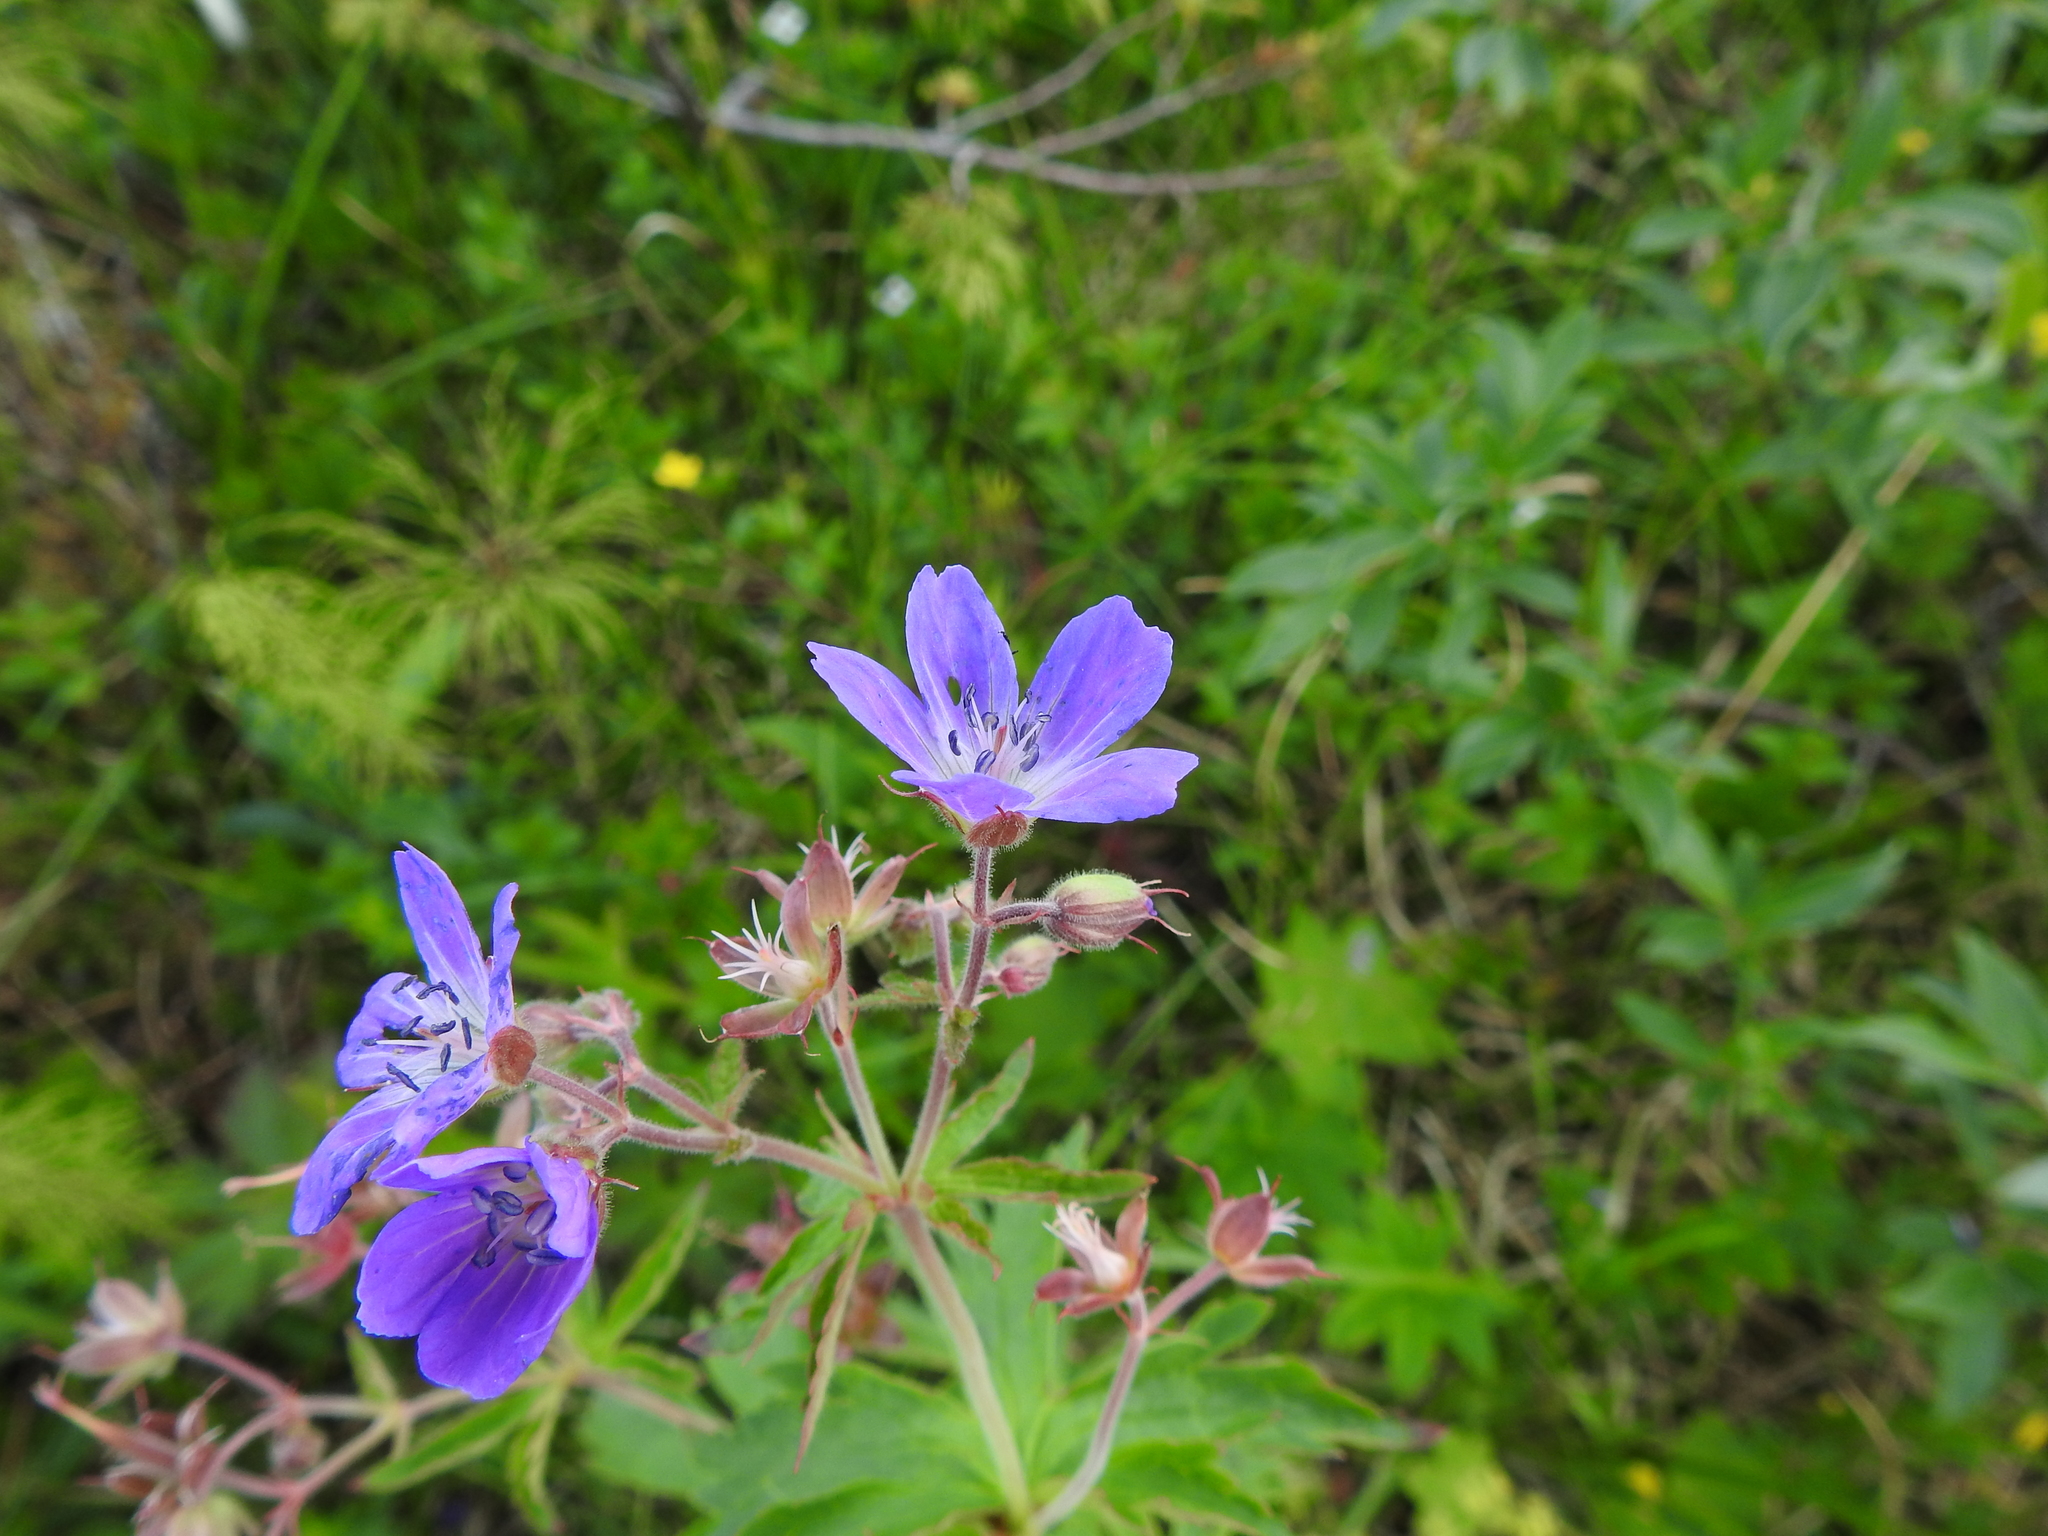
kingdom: Plantae
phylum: Tracheophyta
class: Magnoliopsida
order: Geraniales
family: Geraniaceae
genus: Geranium
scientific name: Geranium sylvaticum
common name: Wood crane's-bill
